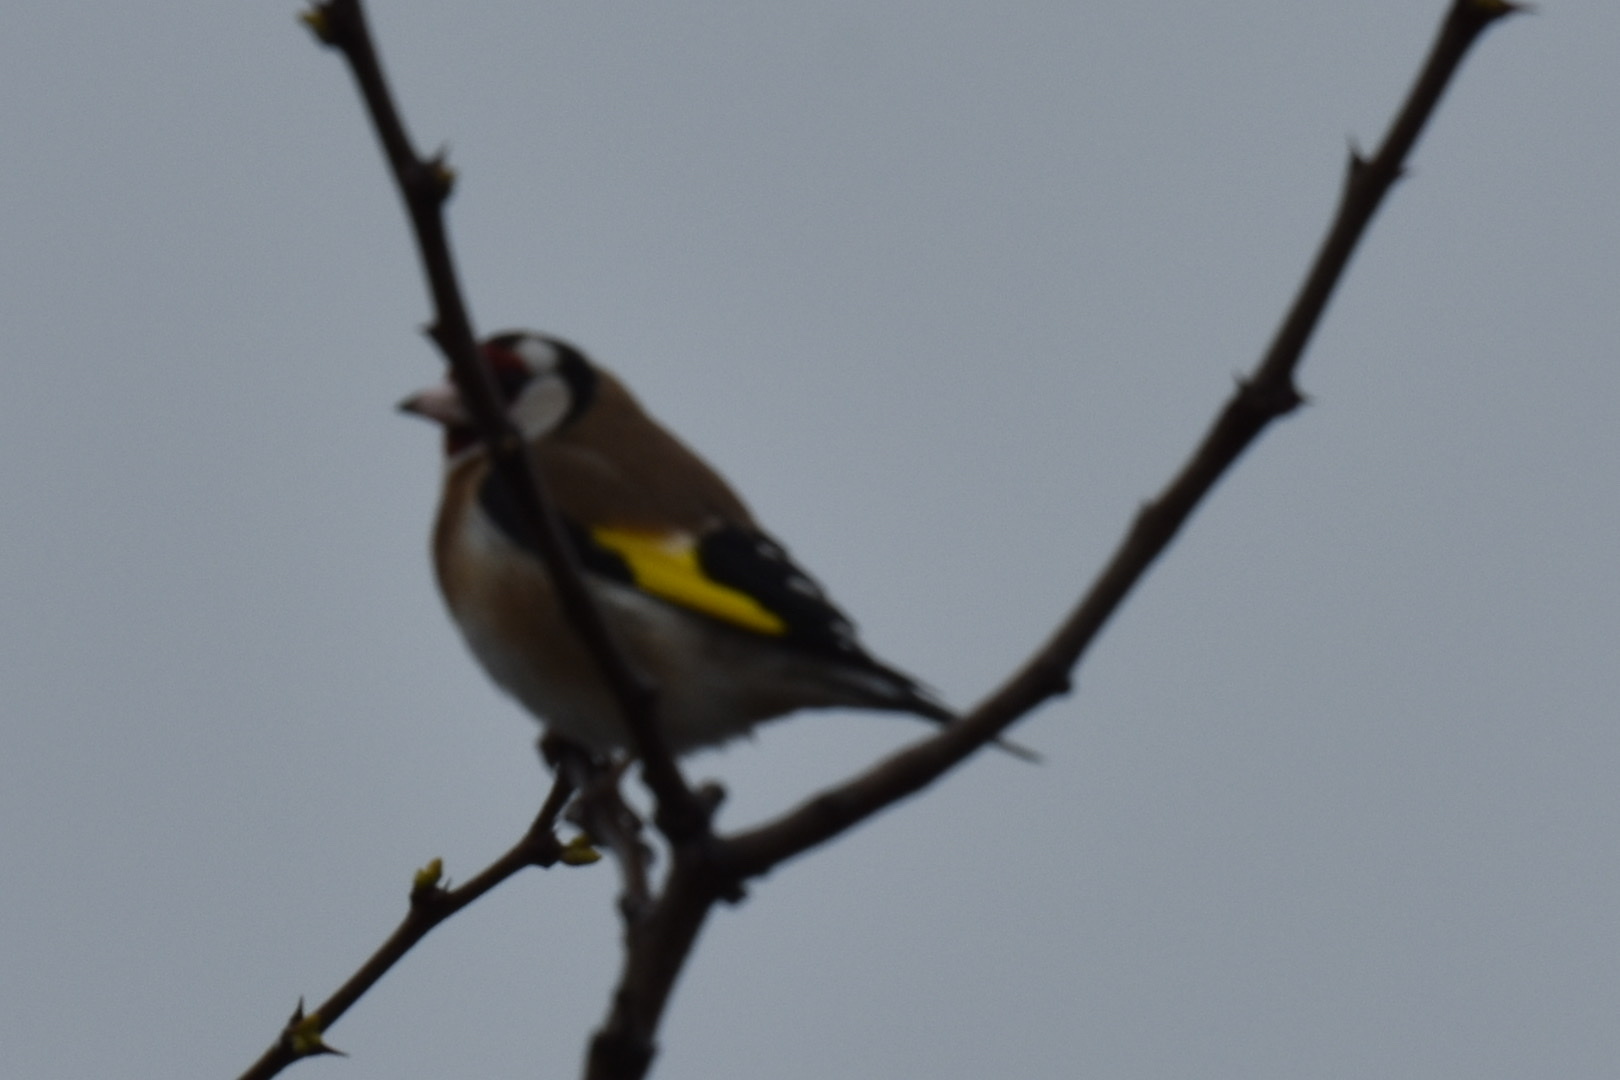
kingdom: Animalia
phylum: Chordata
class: Aves
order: Passeriformes
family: Fringillidae
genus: Carduelis
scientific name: Carduelis carduelis
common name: European goldfinch
